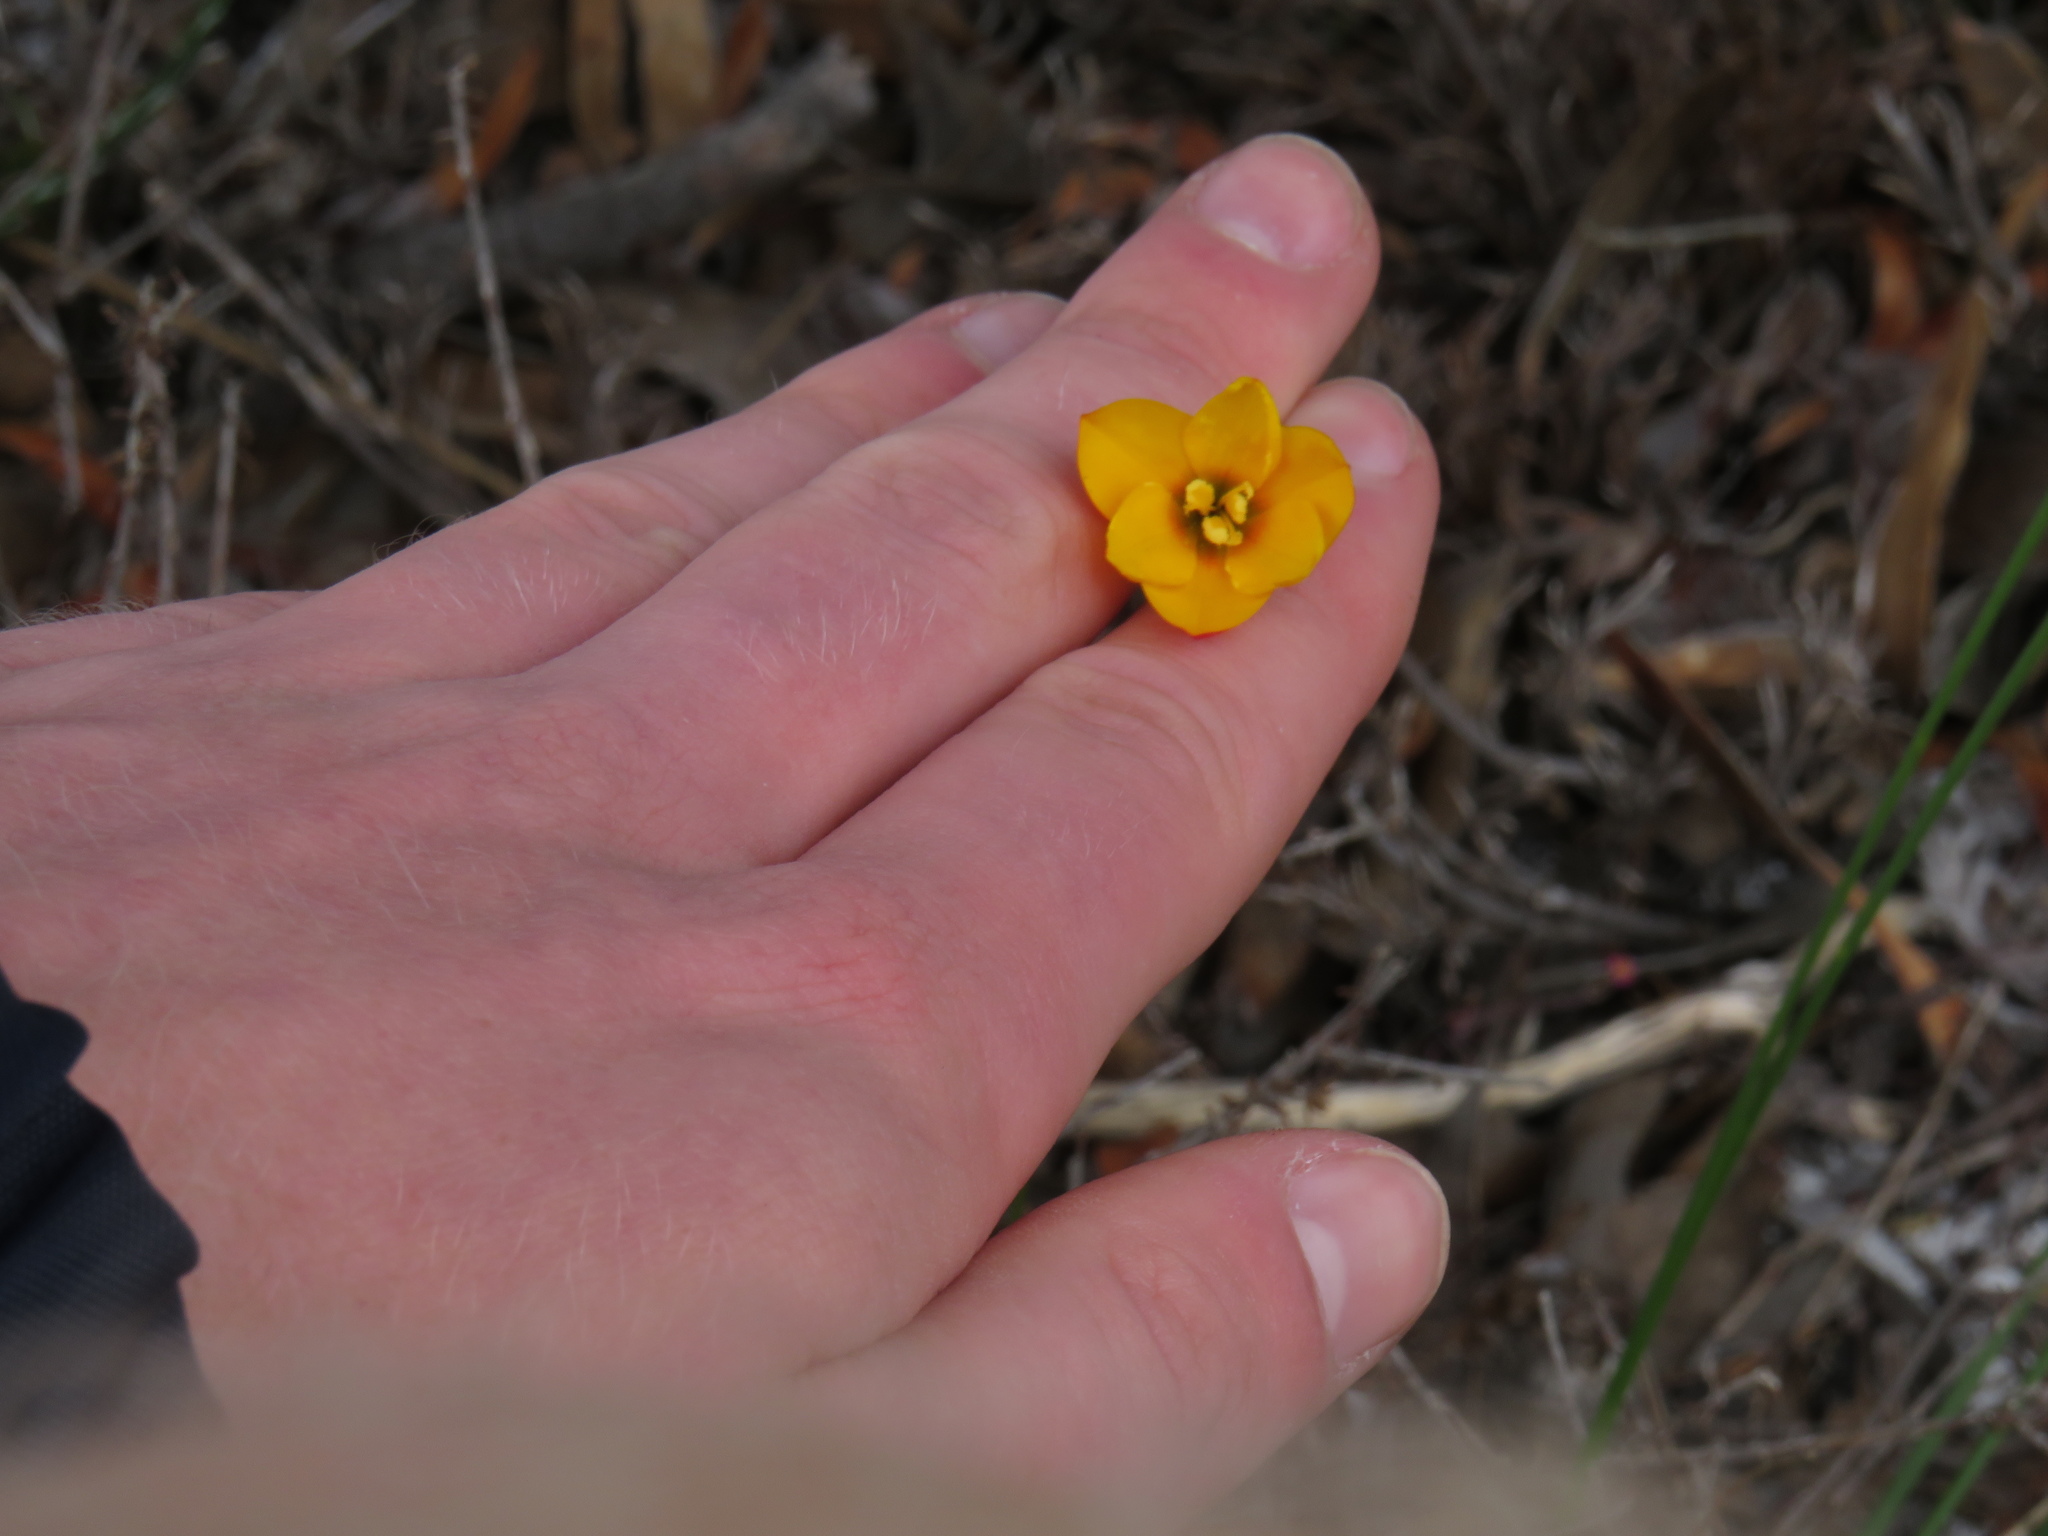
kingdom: Plantae
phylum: Tracheophyta
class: Liliopsida
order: Asparagales
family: Iridaceae
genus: Ixia
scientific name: Ixia dubia
